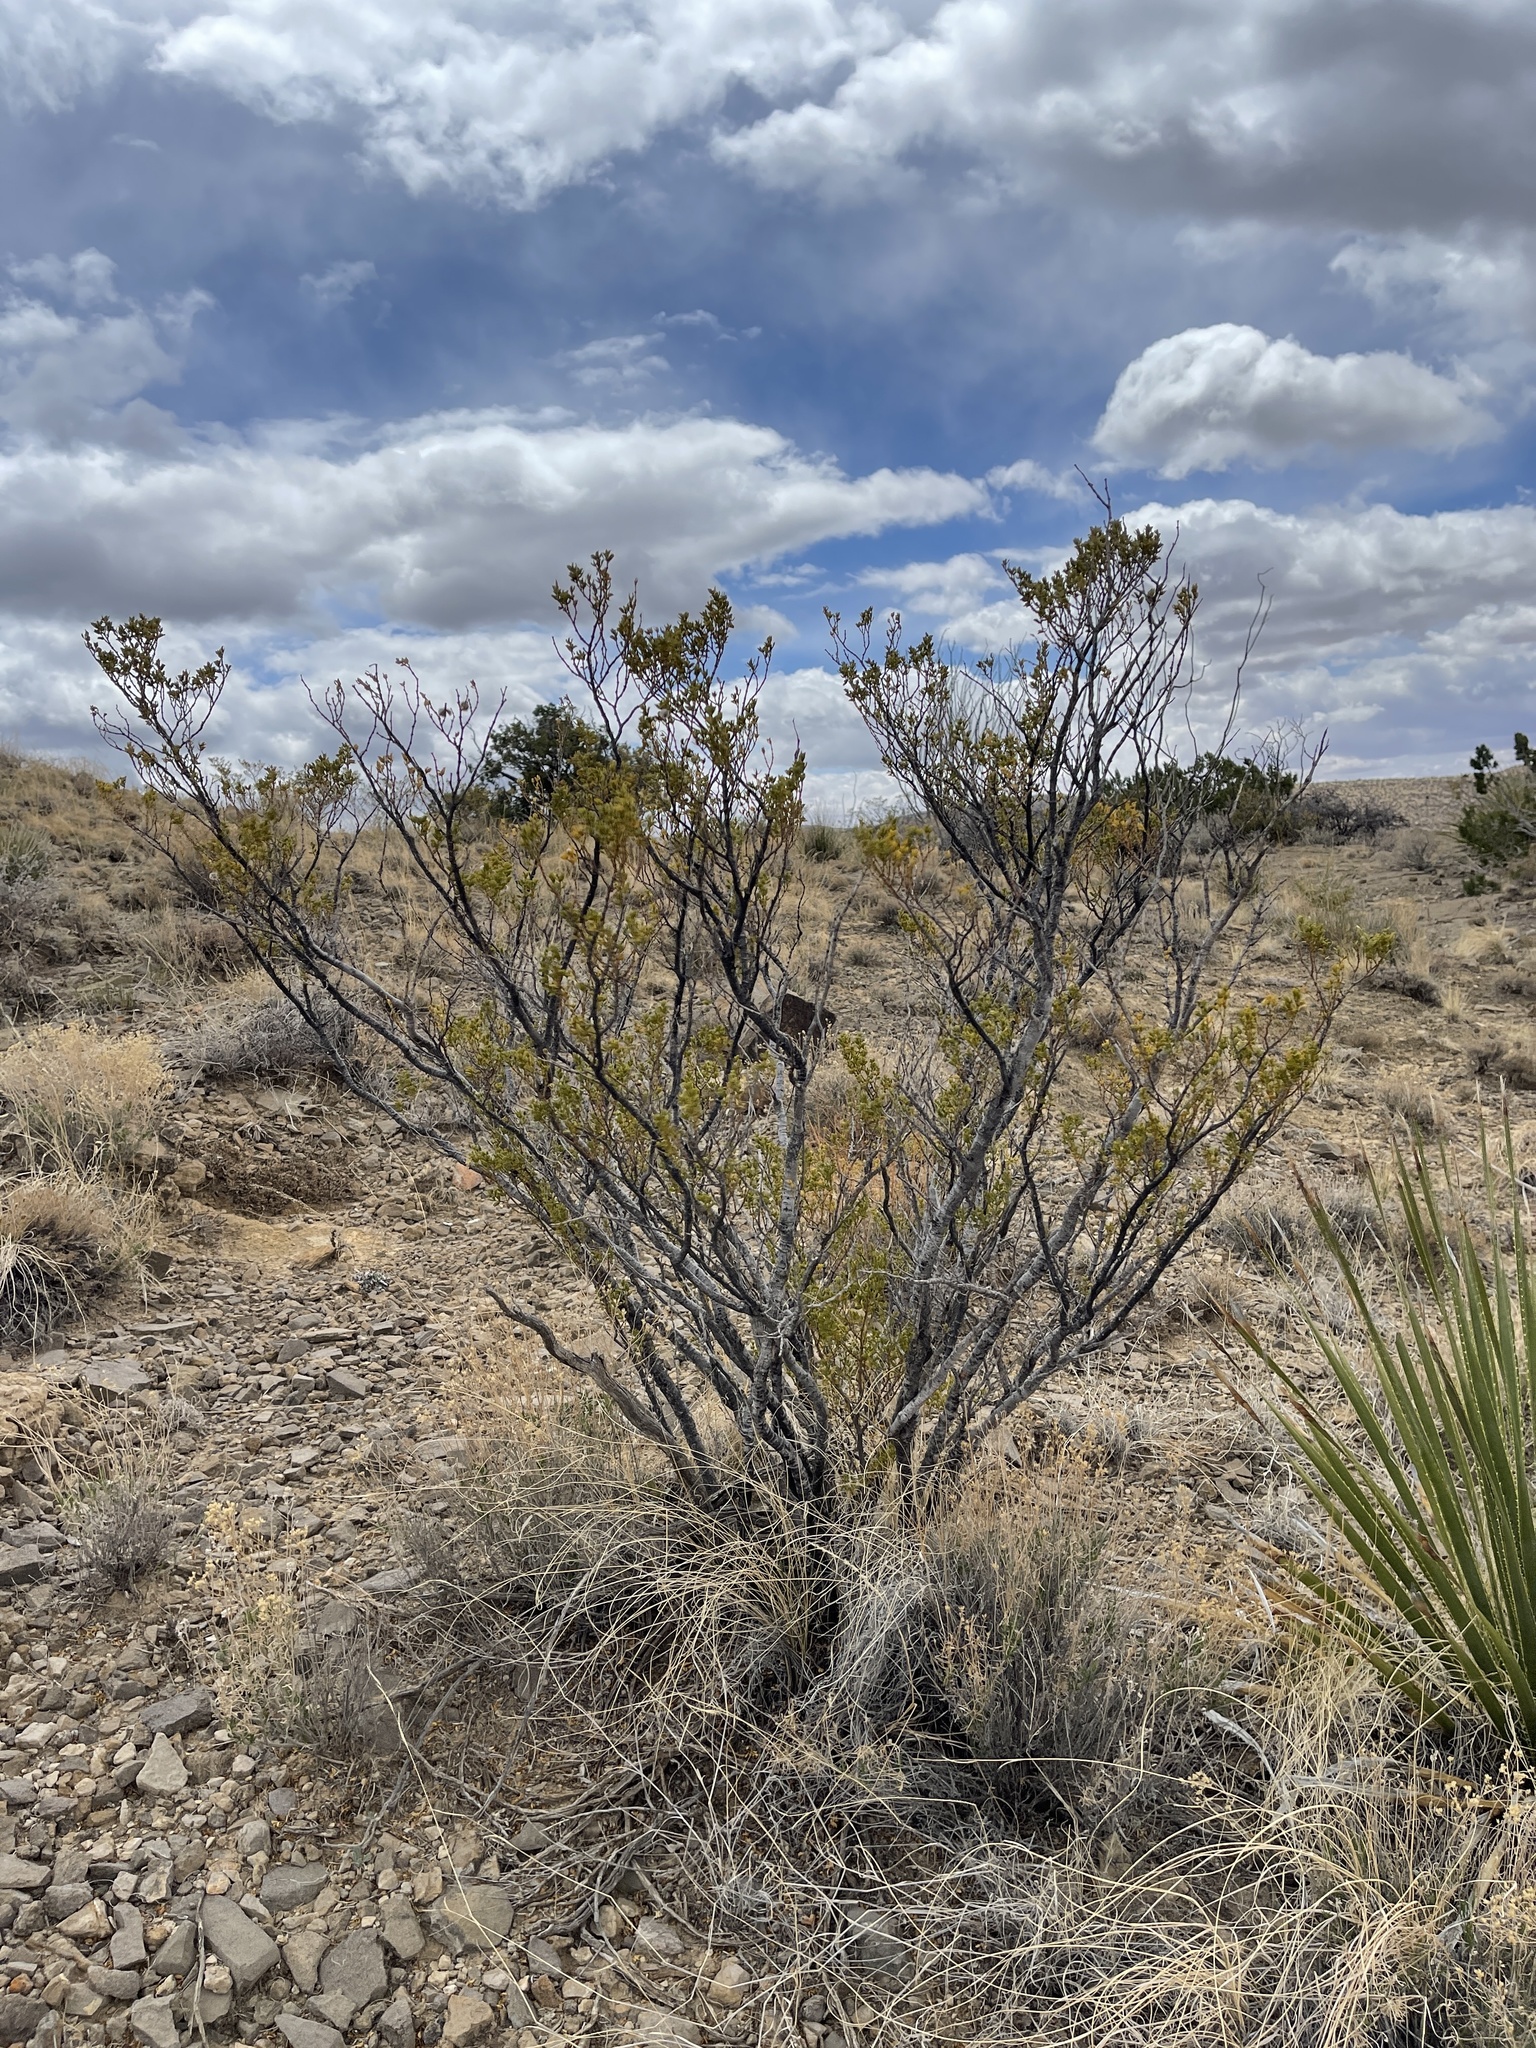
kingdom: Plantae
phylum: Tracheophyta
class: Magnoliopsida
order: Zygophyllales
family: Zygophyllaceae
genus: Larrea
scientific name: Larrea tridentata
